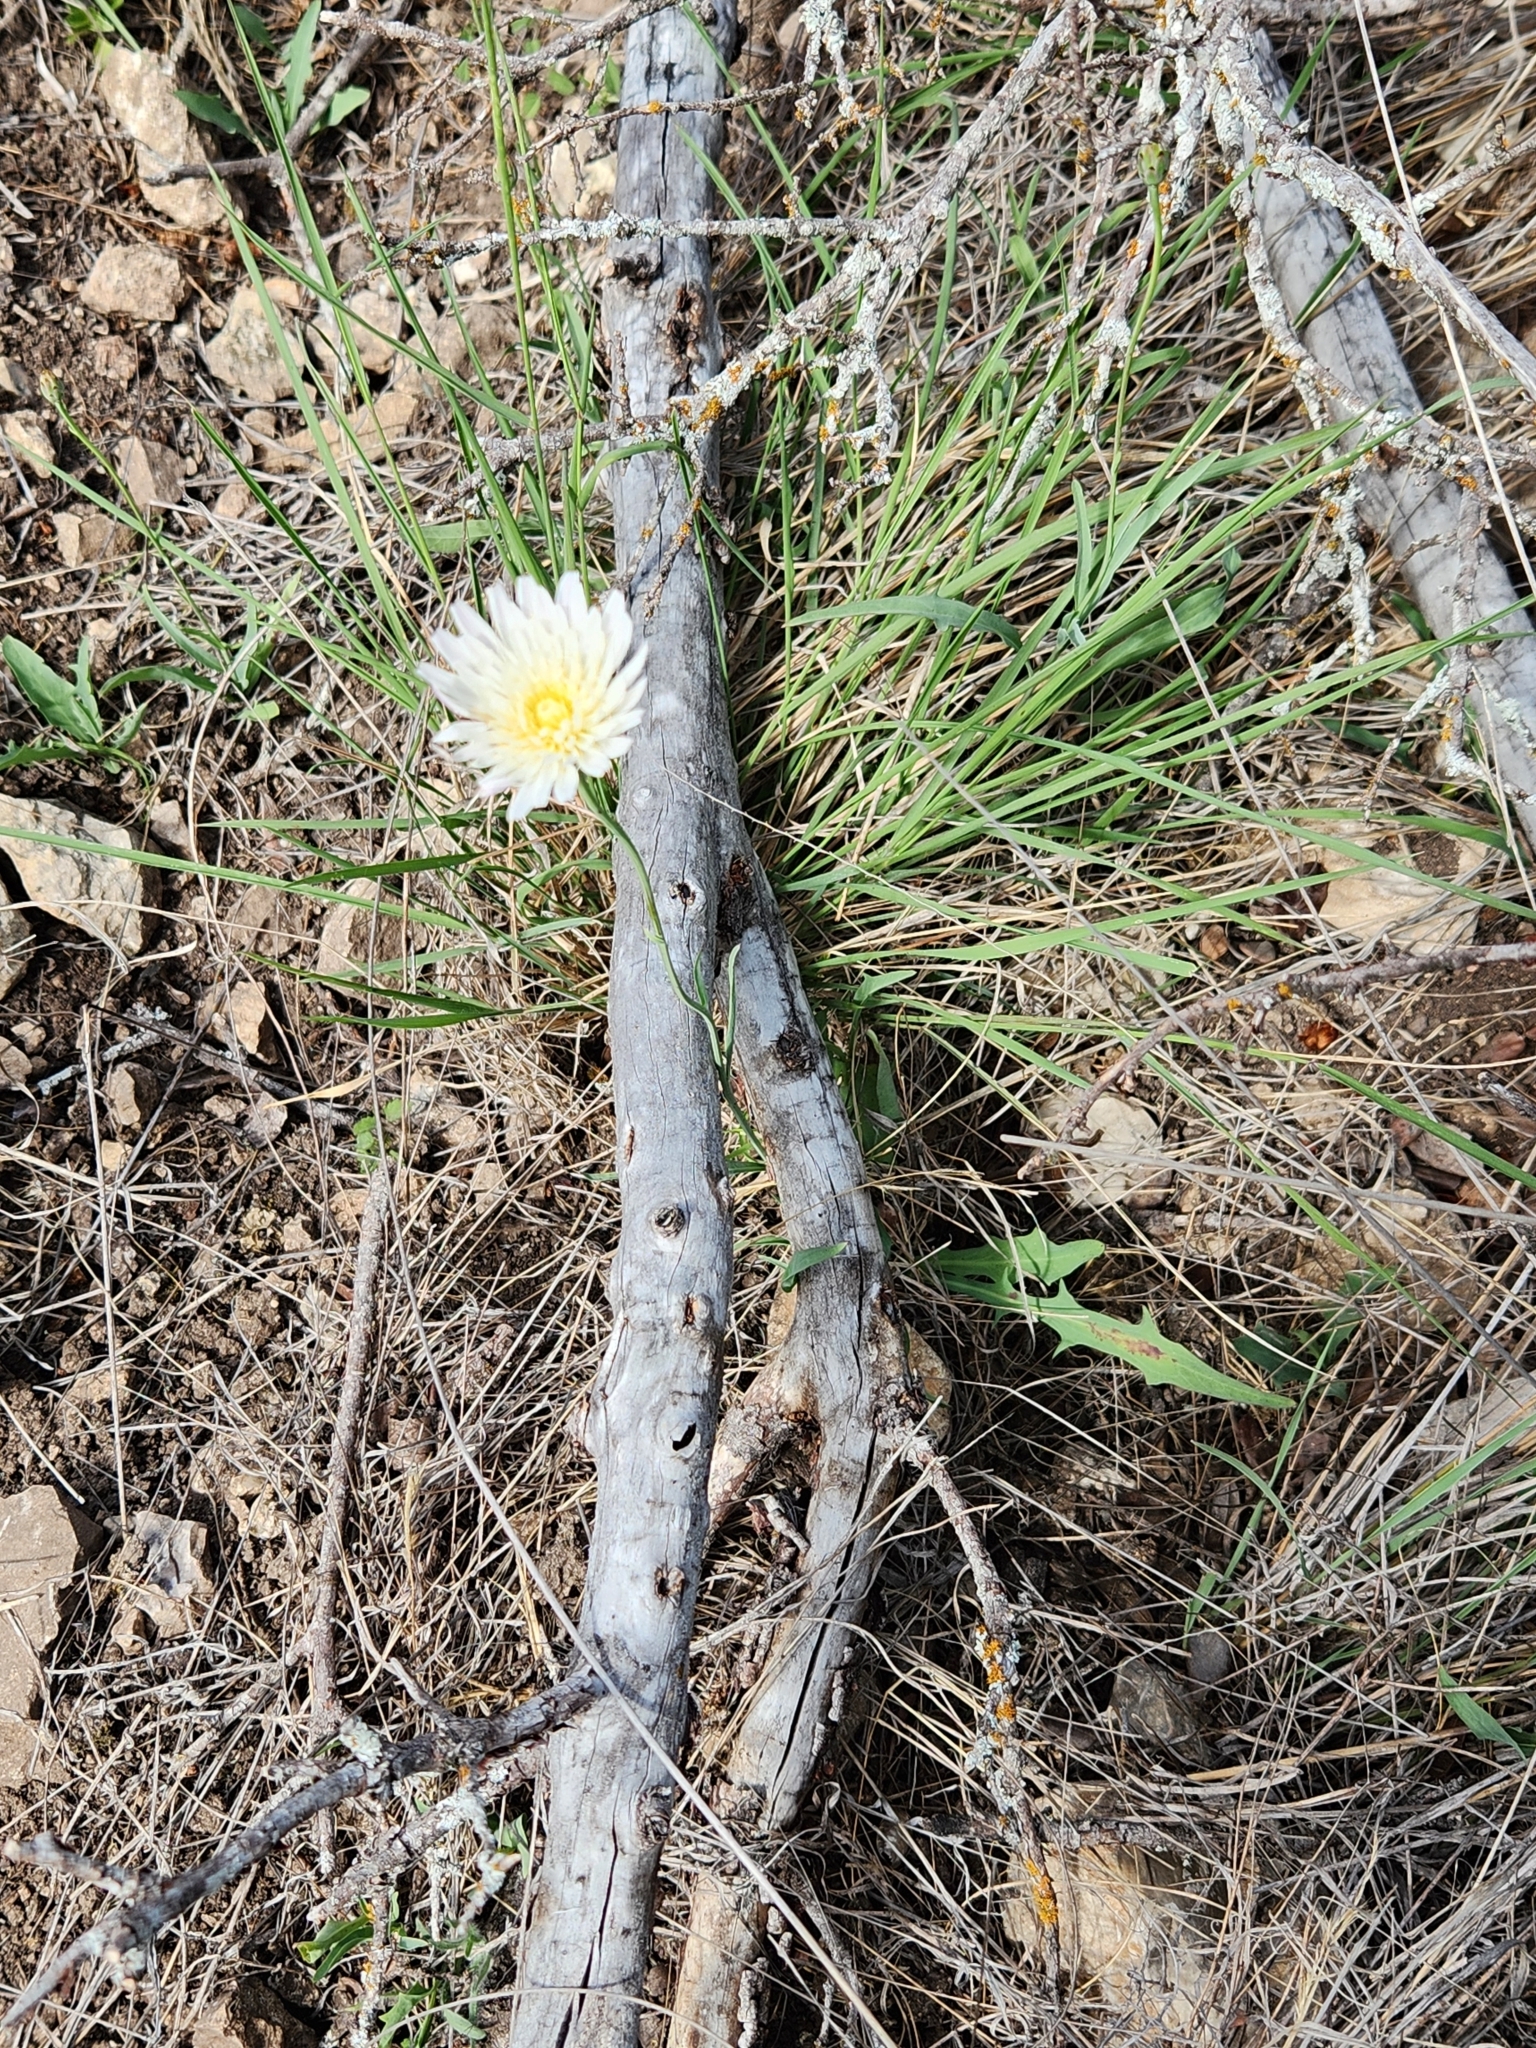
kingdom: Plantae
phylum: Tracheophyta
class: Magnoliopsida
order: Asterales
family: Asteraceae
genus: Pinaropappus
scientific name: Pinaropappus roseus
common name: Rock-lettuce
